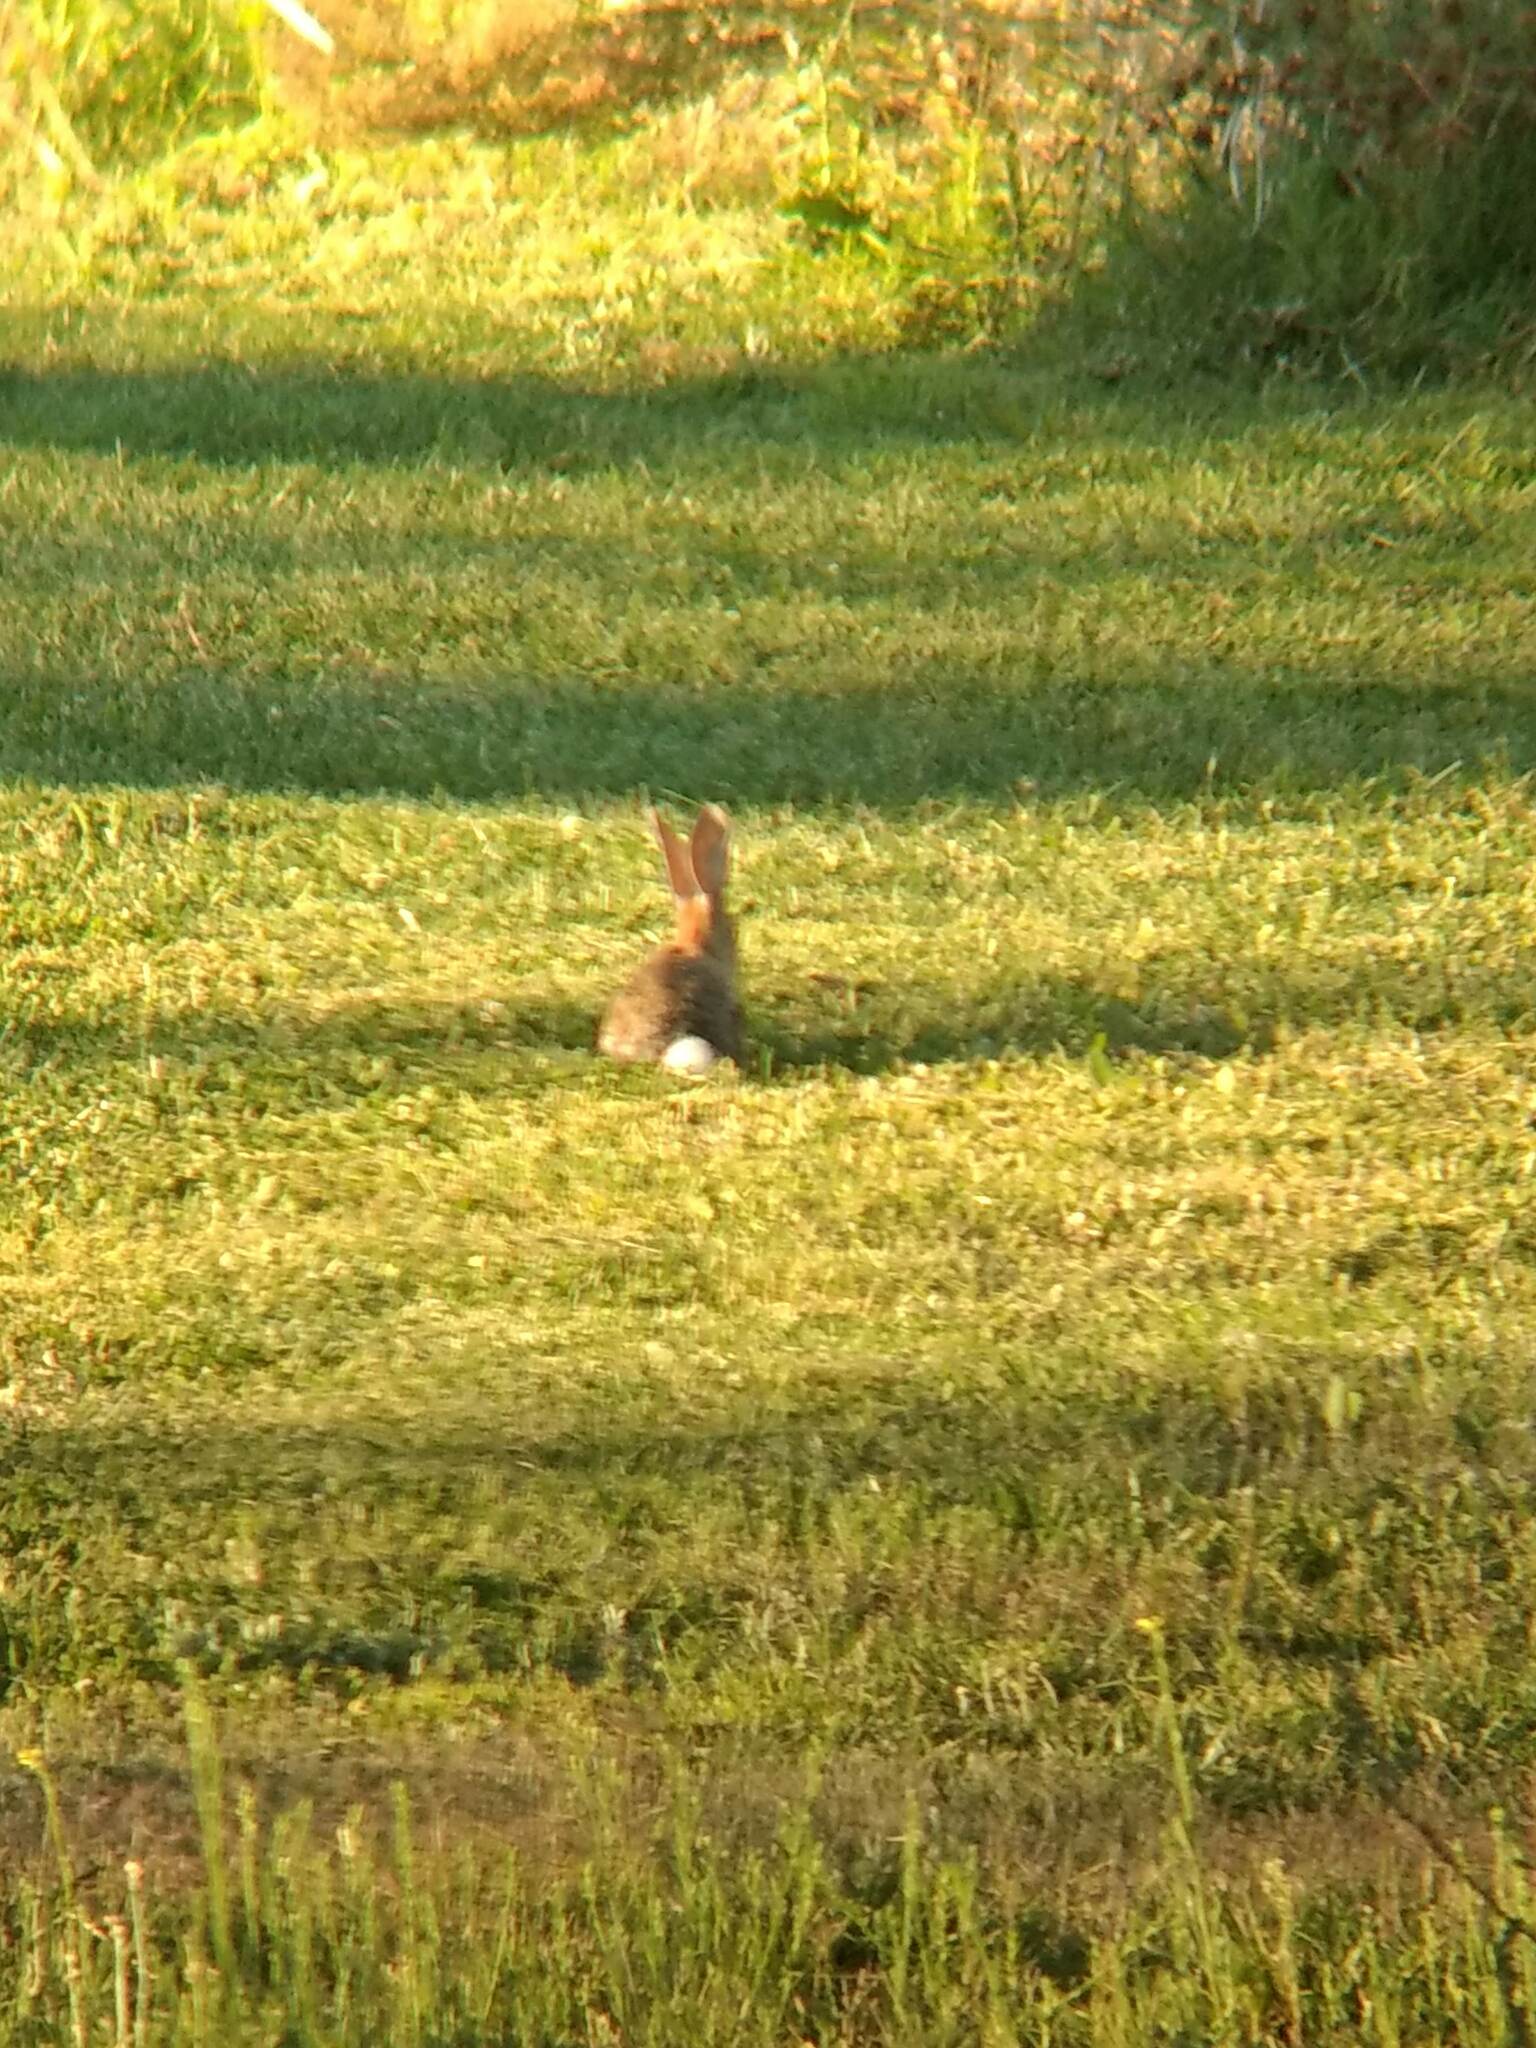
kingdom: Animalia
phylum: Chordata
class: Mammalia
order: Lagomorpha
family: Leporidae
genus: Sylvilagus
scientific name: Sylvilagus audubonii
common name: Desert cottontail
